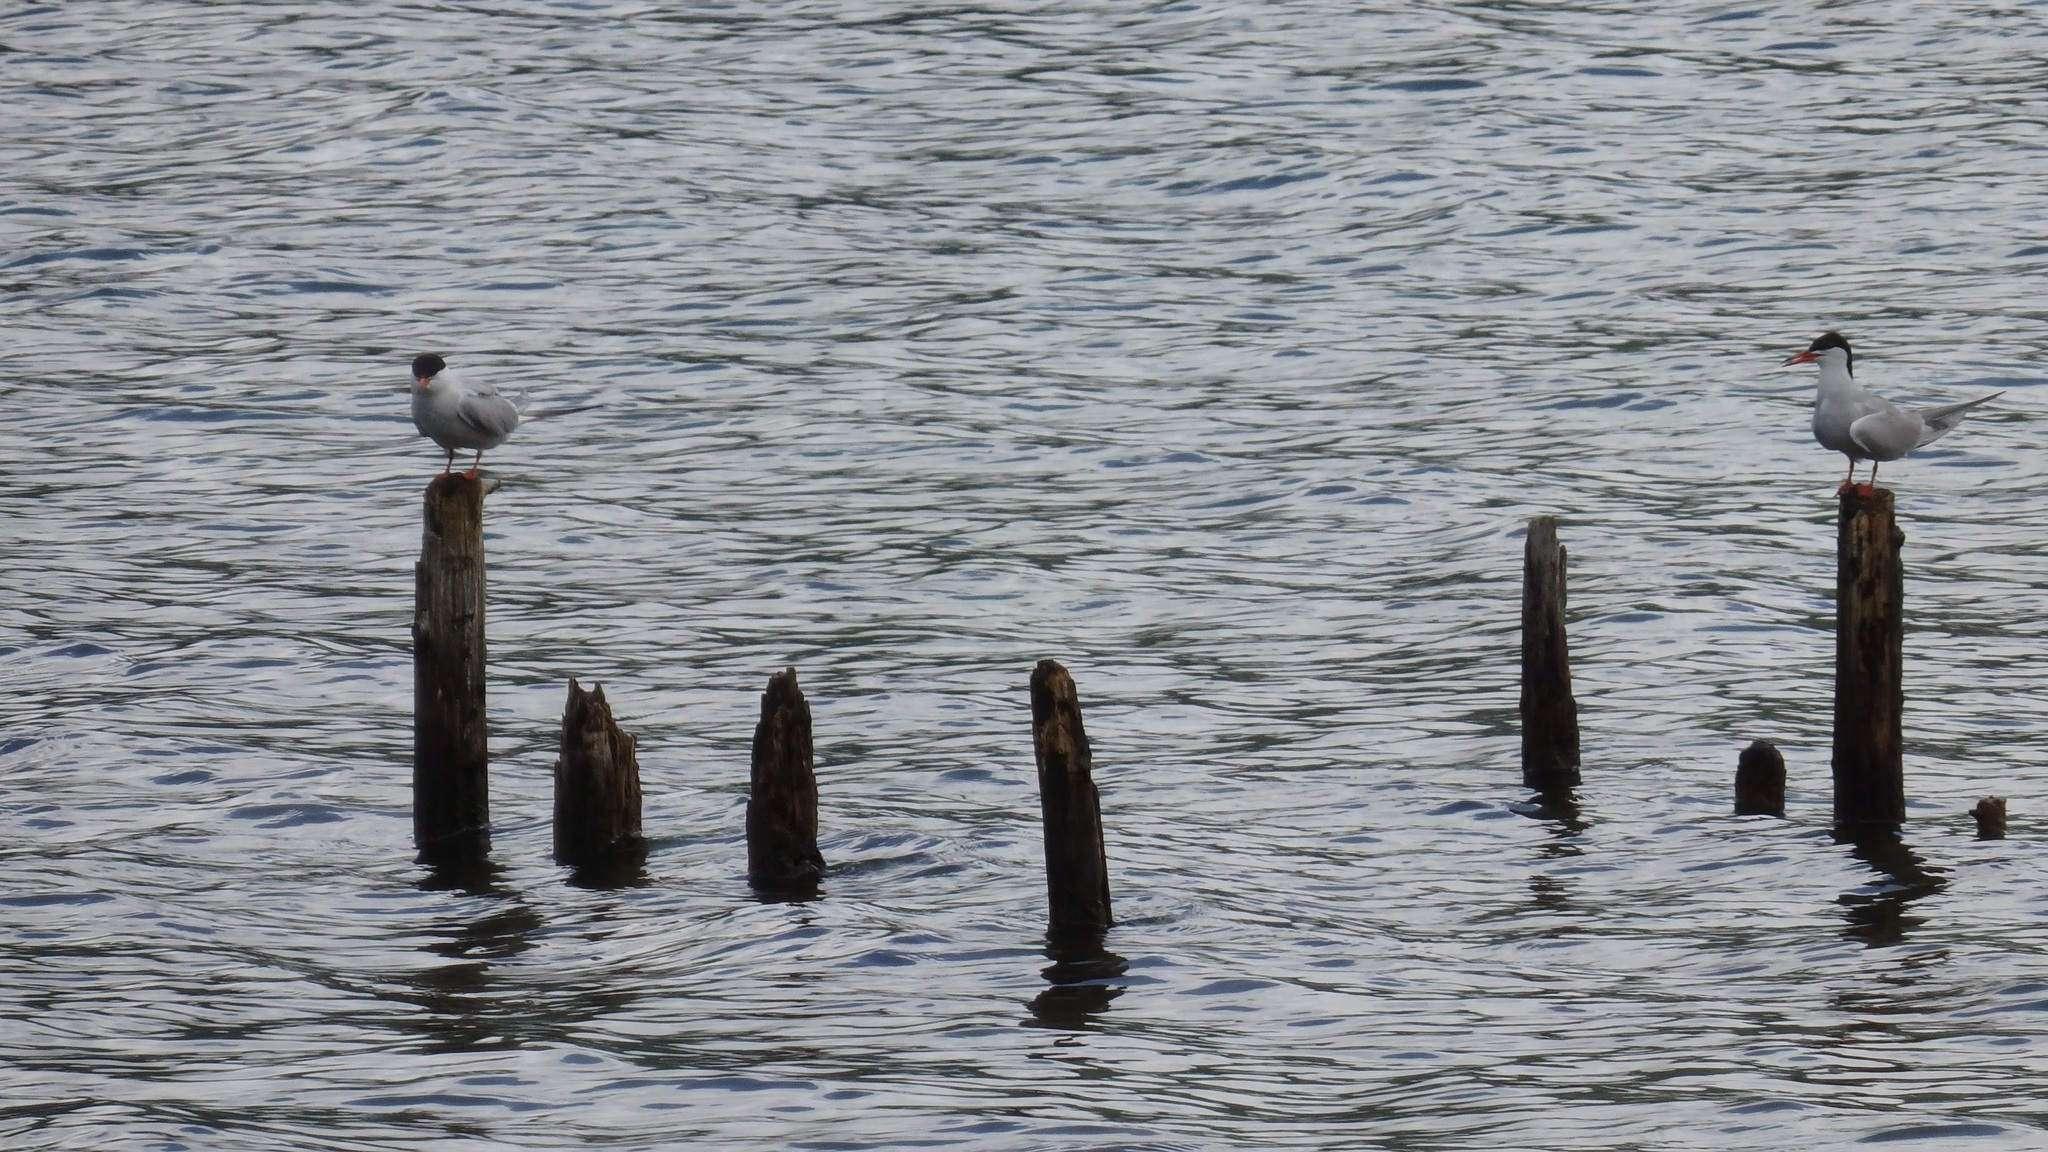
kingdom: Animalia
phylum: Chordata
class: Aves
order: Charadriiformes
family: Laridae
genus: Sterna
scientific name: Sterna hirundo
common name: Common tern
